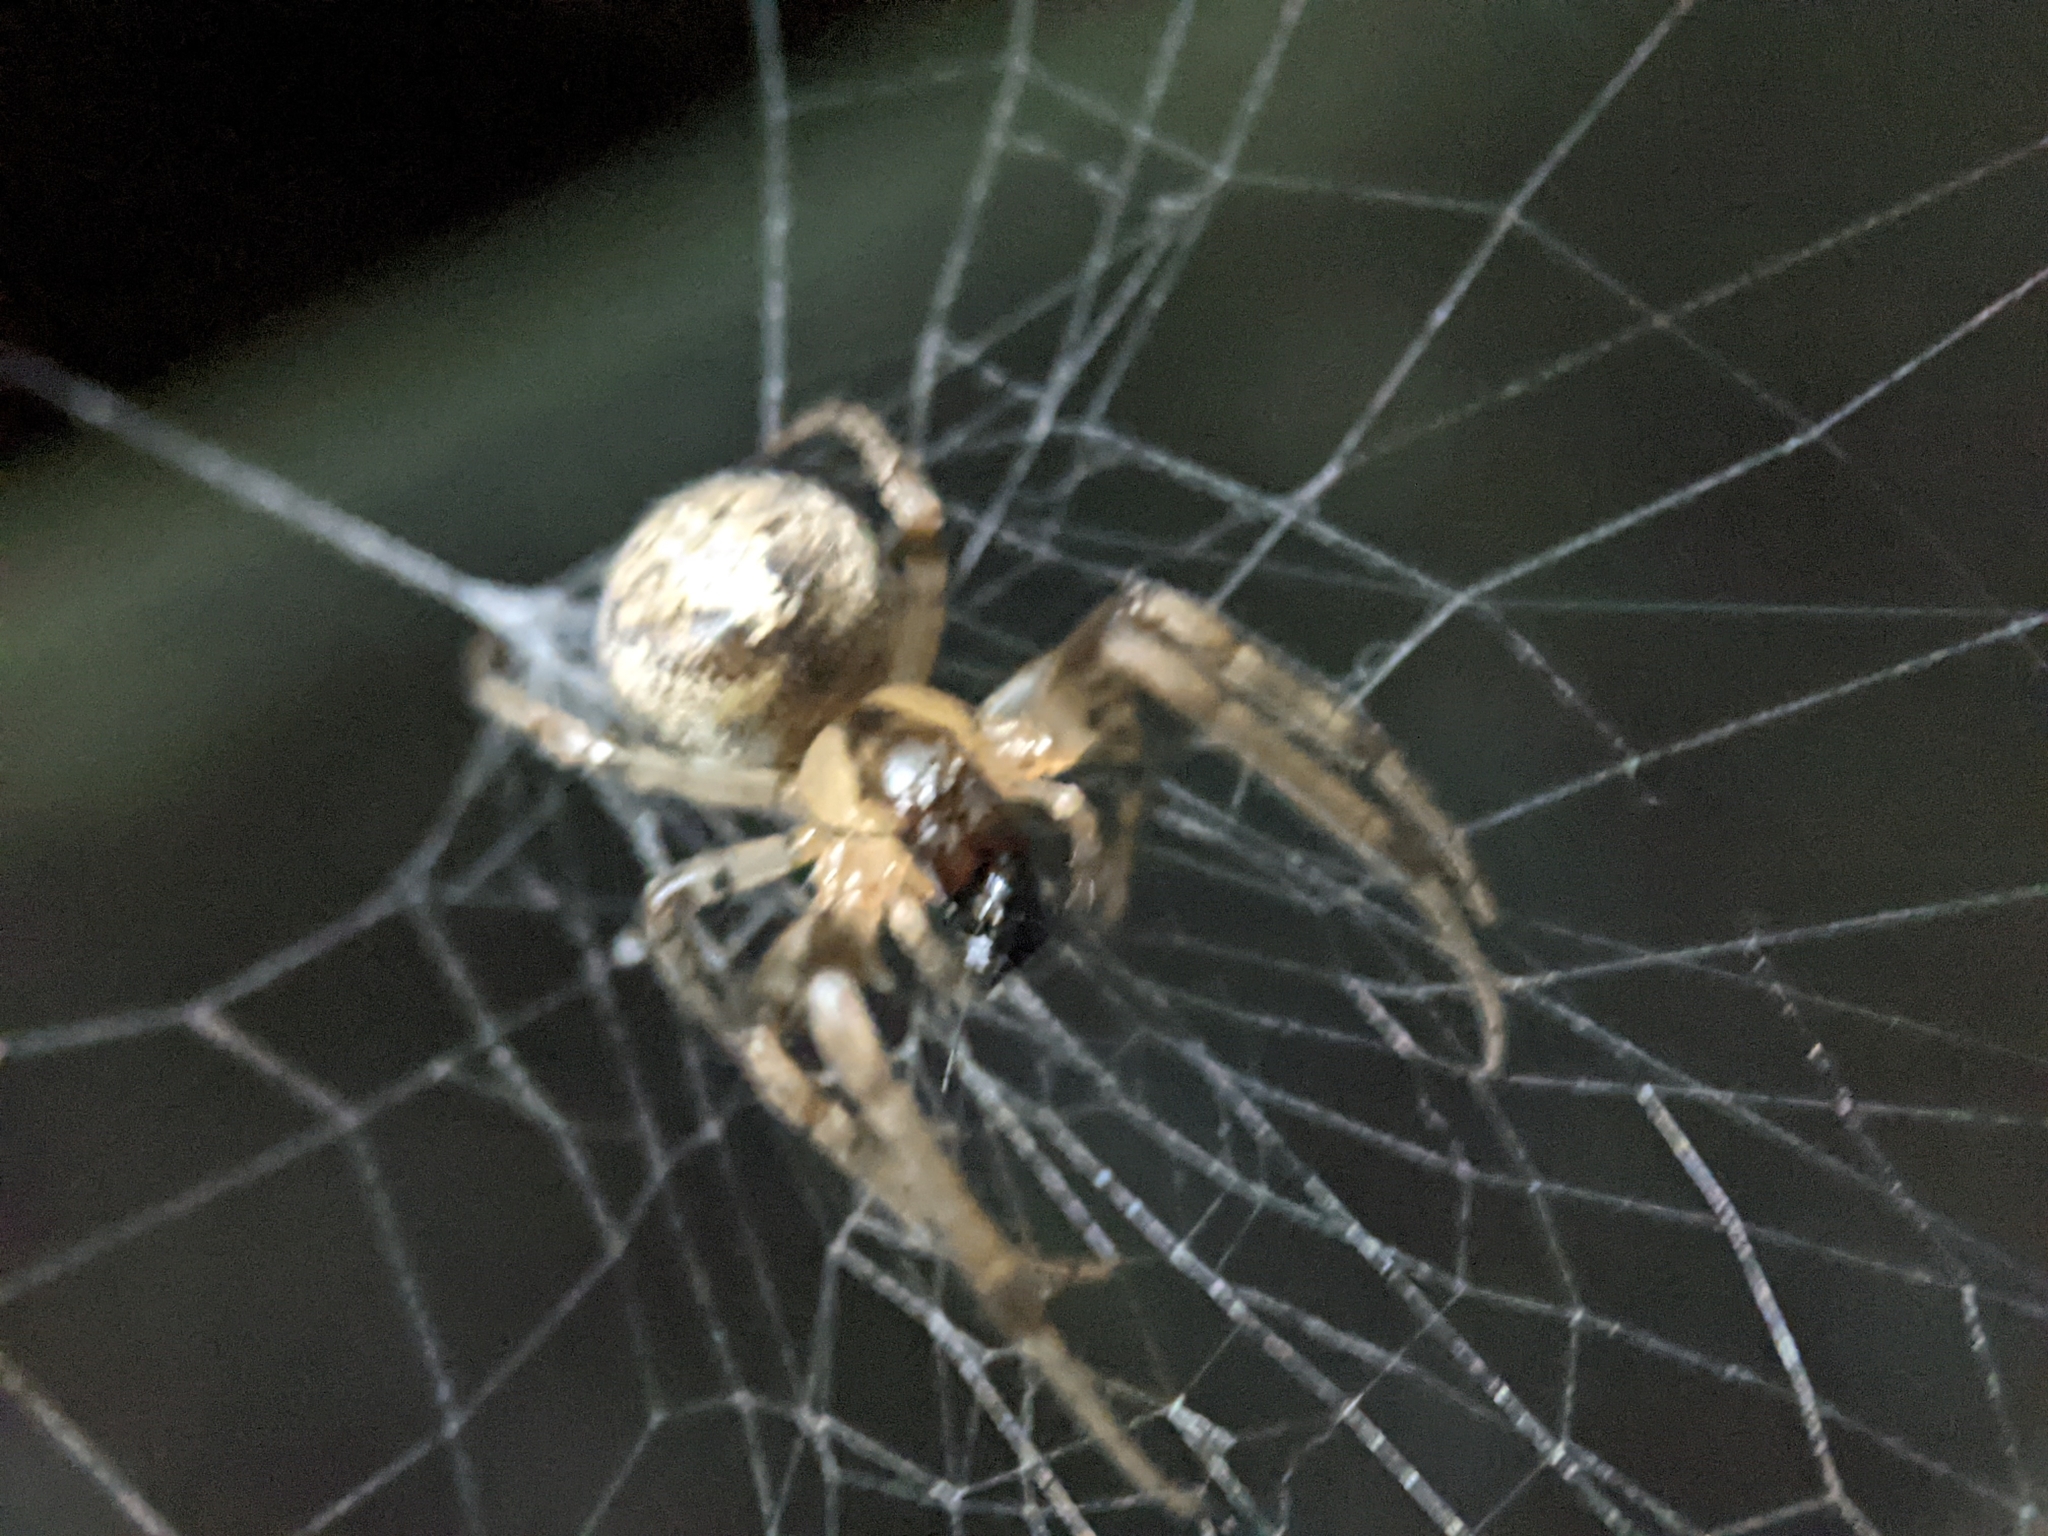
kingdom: Animalia
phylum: Arthropoda
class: Arachnida
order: Araneae
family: Araneidae
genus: Zygiella
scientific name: Zygiella x-notata
